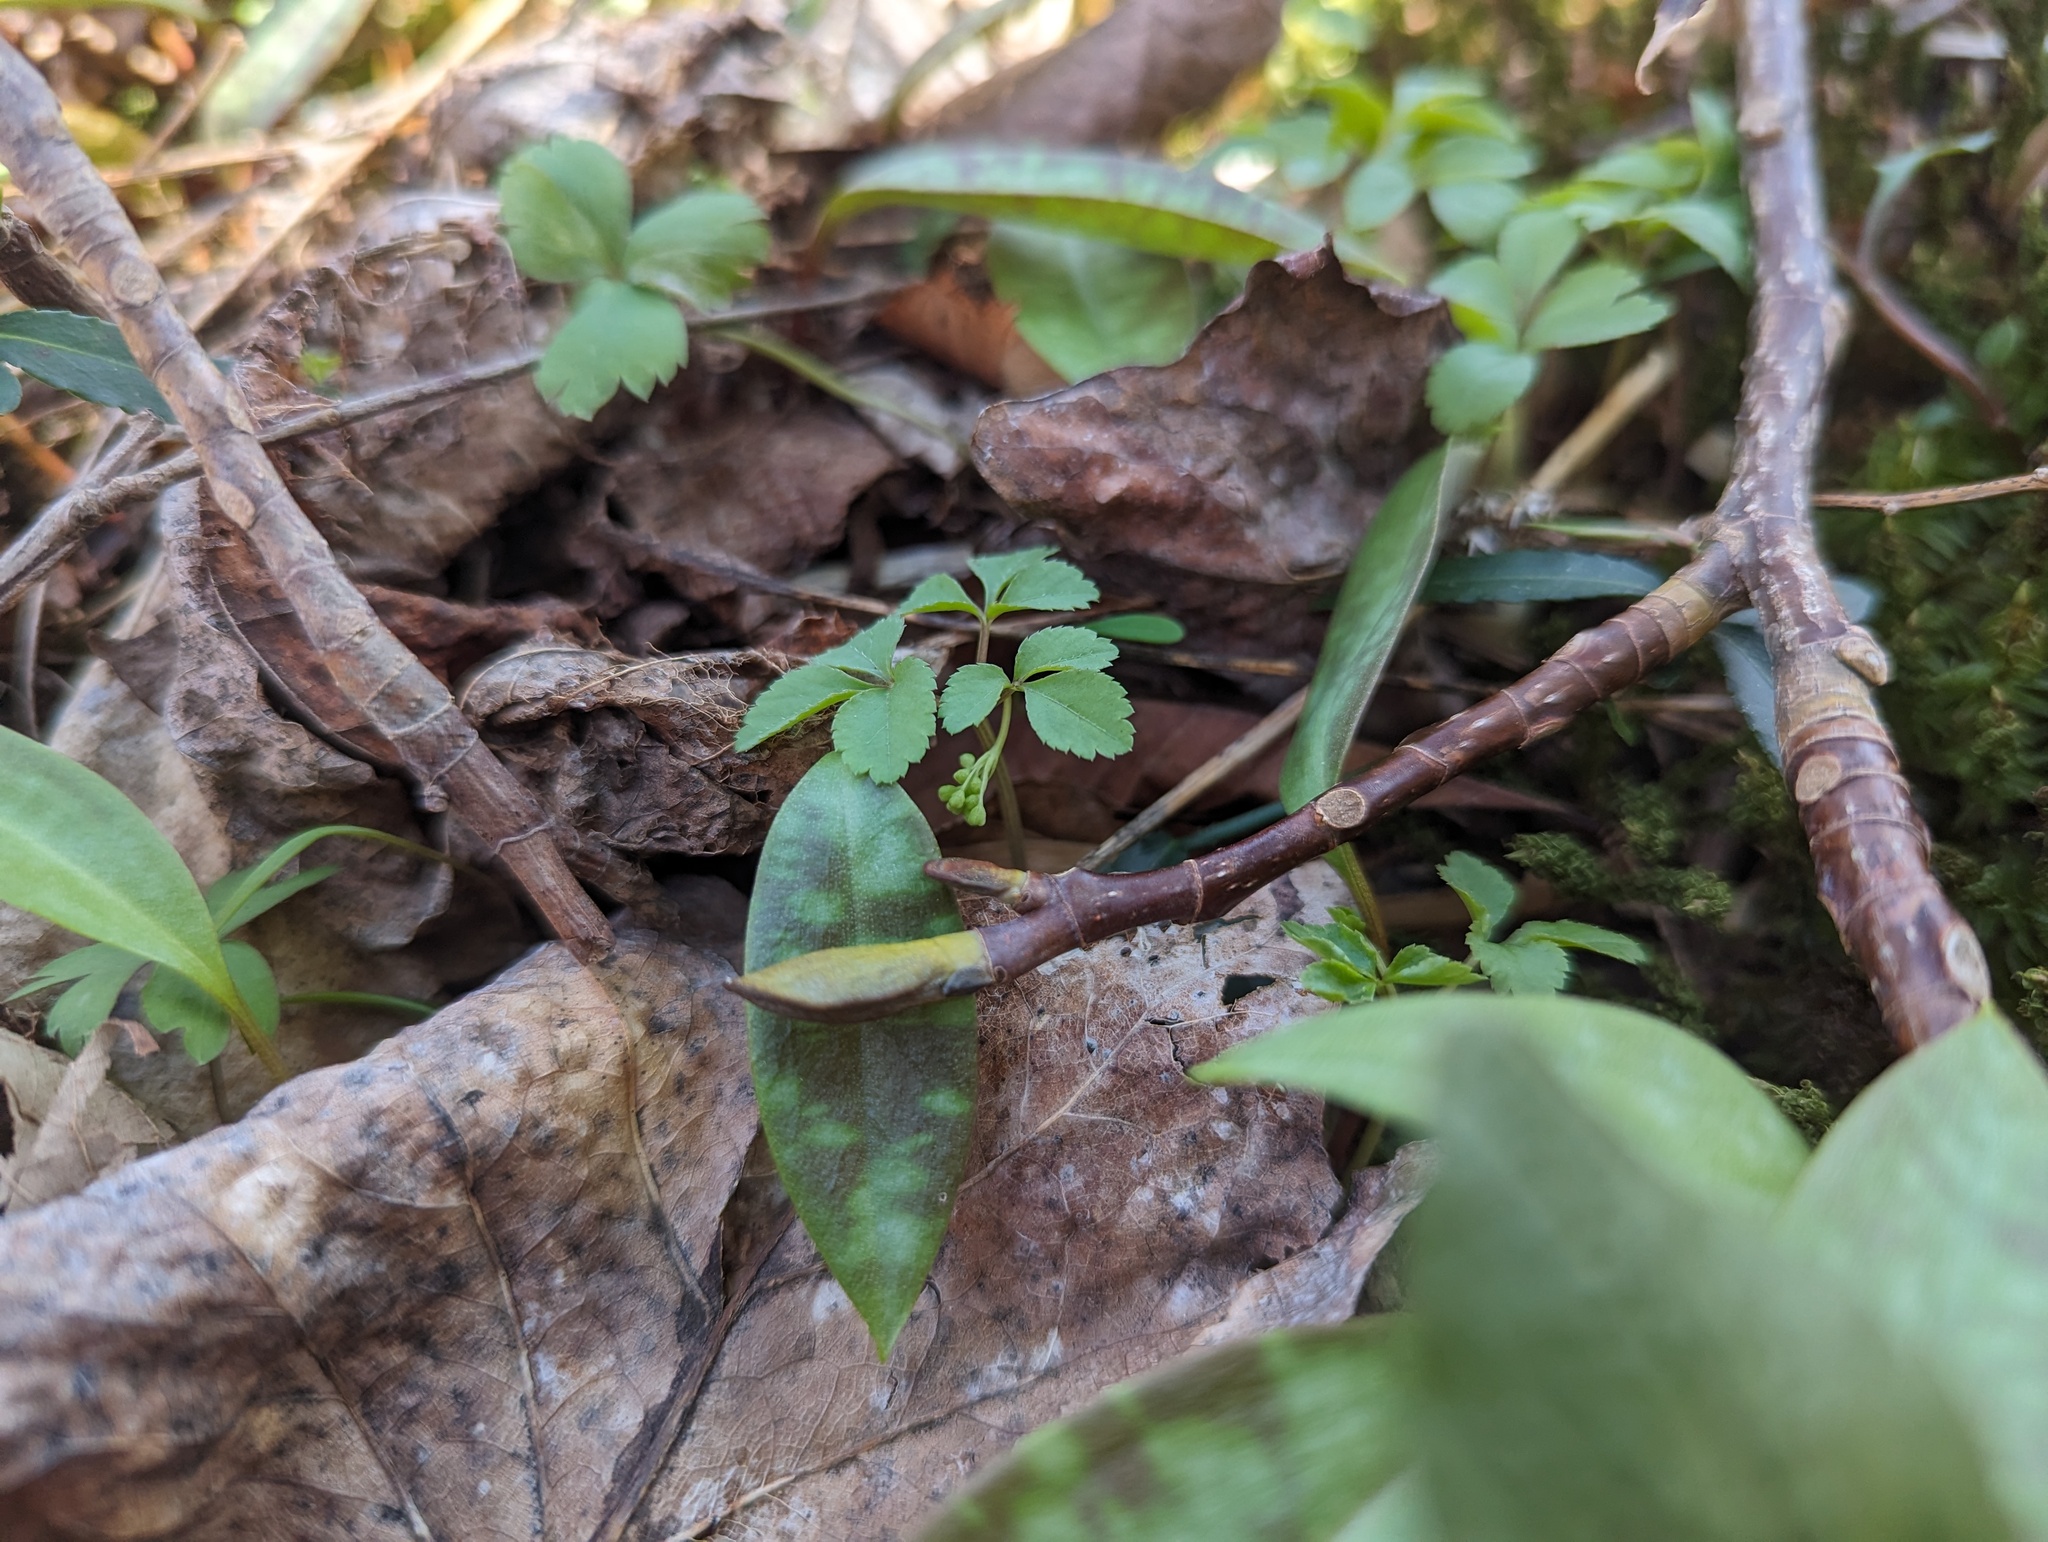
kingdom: Plantae
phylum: Tracheophyta
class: Magnoliopsida
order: Apiales
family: Araliaceae
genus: Panax
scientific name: Panax trifolius
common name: Dwarf ginseng
